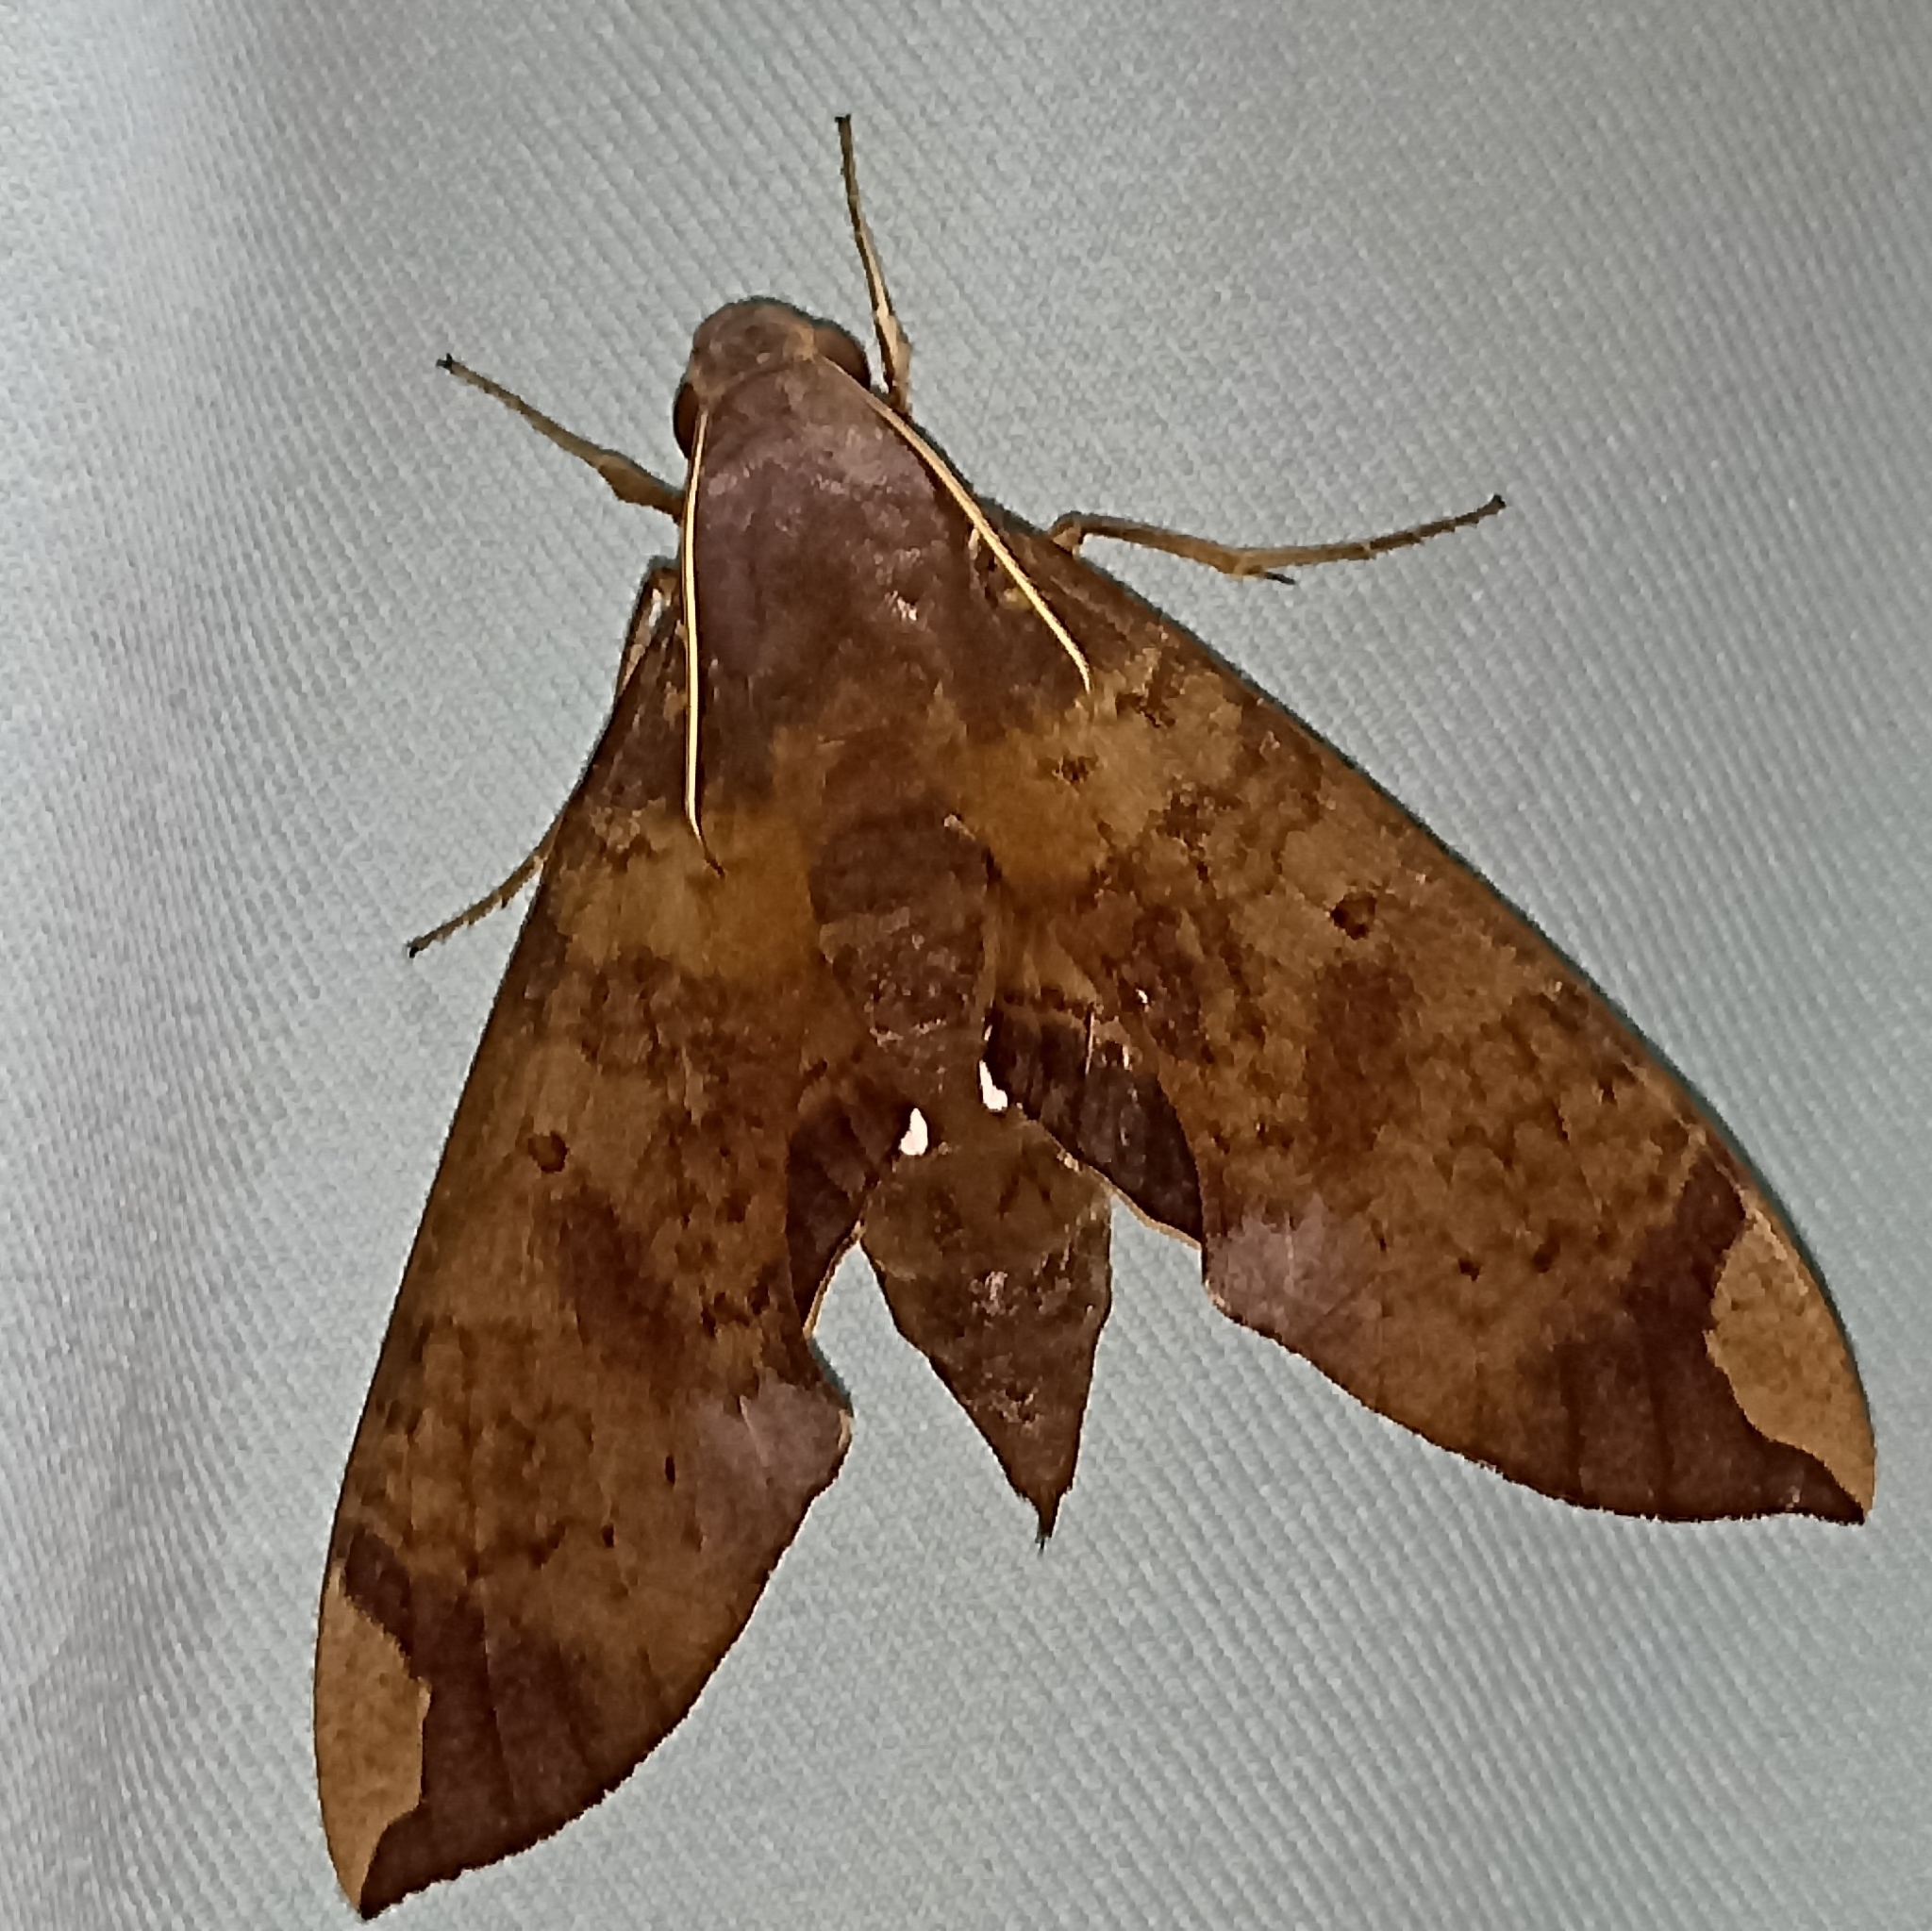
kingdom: Animalia
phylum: Arthropoda
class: Insecta
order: Lepidoptera
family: Sphingidae
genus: Pachylia
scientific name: Pachylia ficus
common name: Fig sphinx
